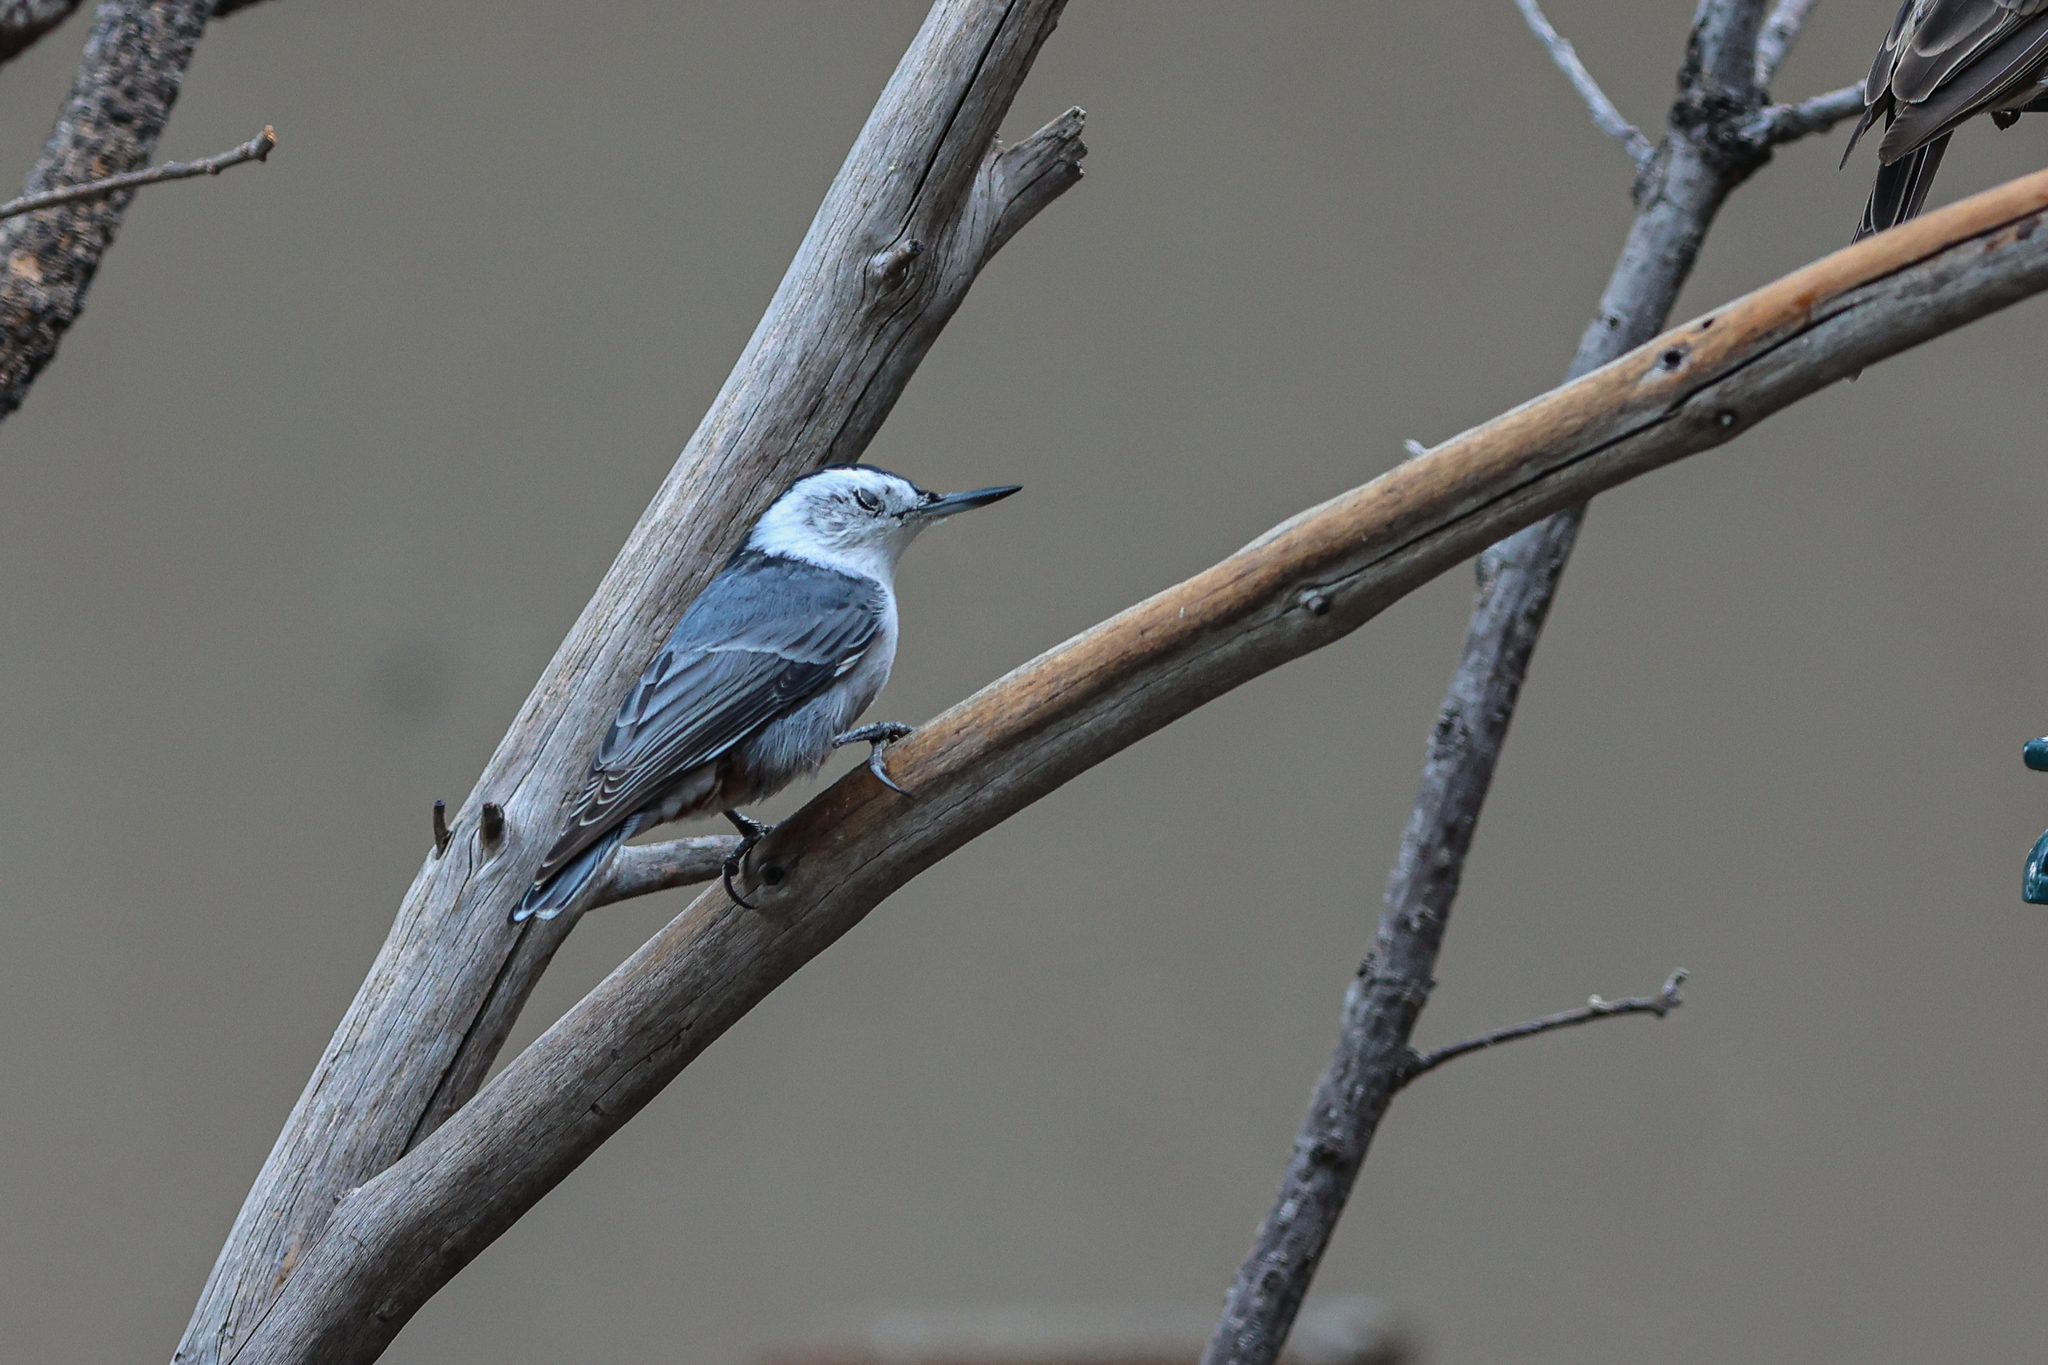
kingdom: Animalia
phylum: Chordata
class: Aves
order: Passeriformes
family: Sittidae
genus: Sitta
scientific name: Sitta carolinensis
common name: White-breasted nuthatch
